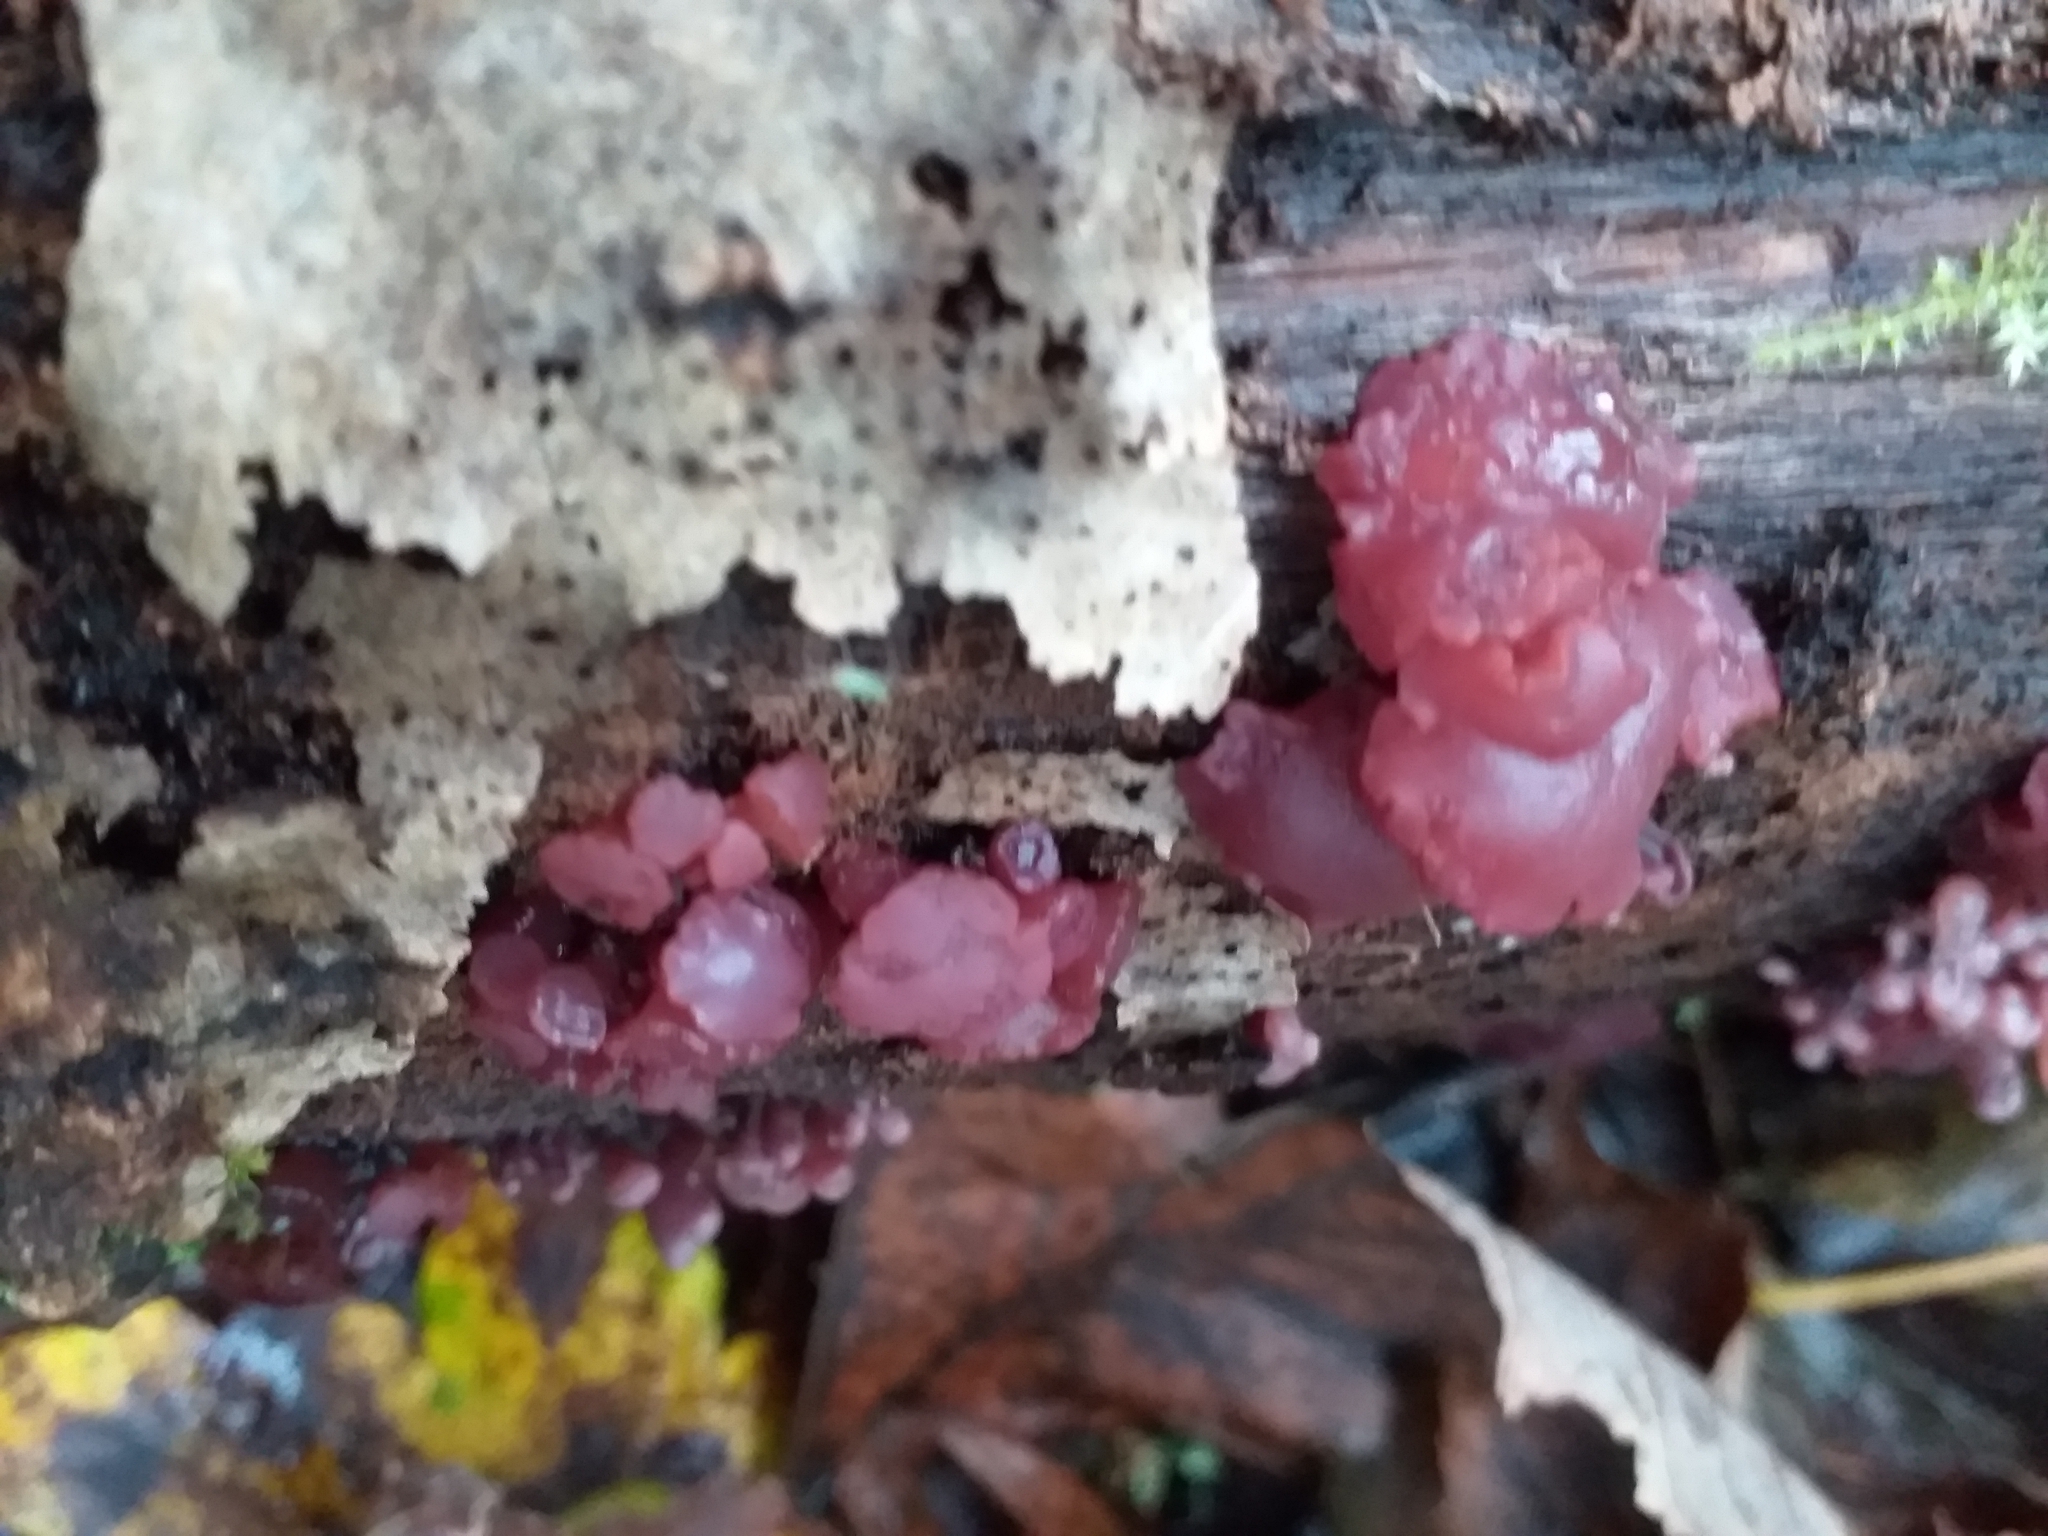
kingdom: Fungi
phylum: Ascomycota
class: Leotiomycetes
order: Helotiales
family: Gelatinodiscaceae
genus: Ascocoryne
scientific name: Ascocoryne sarcoides
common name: Purple jellydisc
